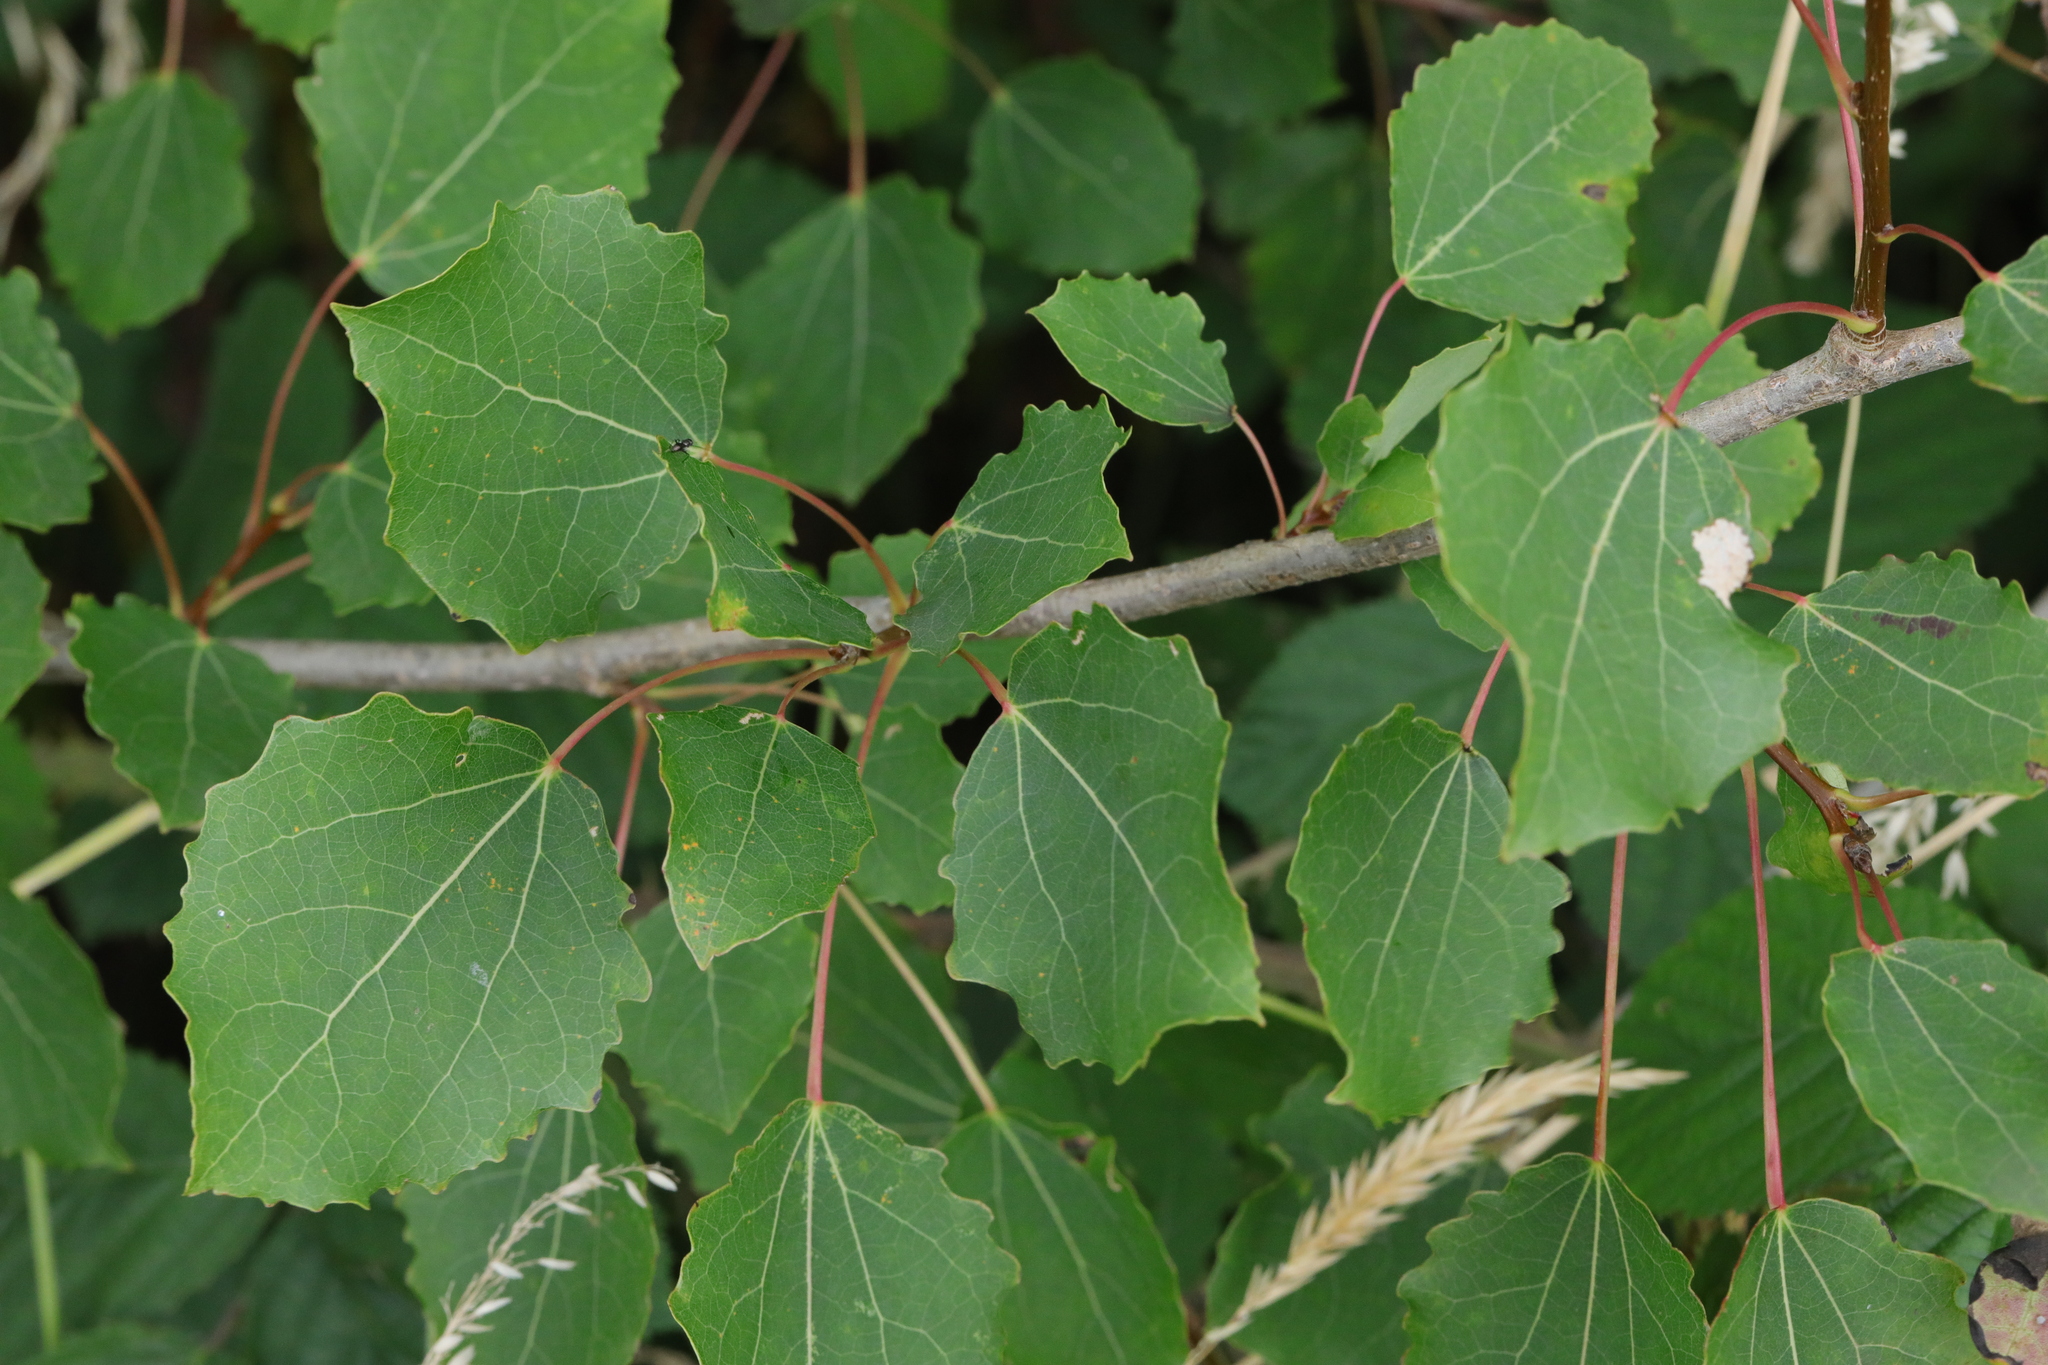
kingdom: Plantae
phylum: Tracheophyta
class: Magnoliopsida
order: Malpighiales
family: Salicaceae
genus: Populus
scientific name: Populus tremula
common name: European aspen
